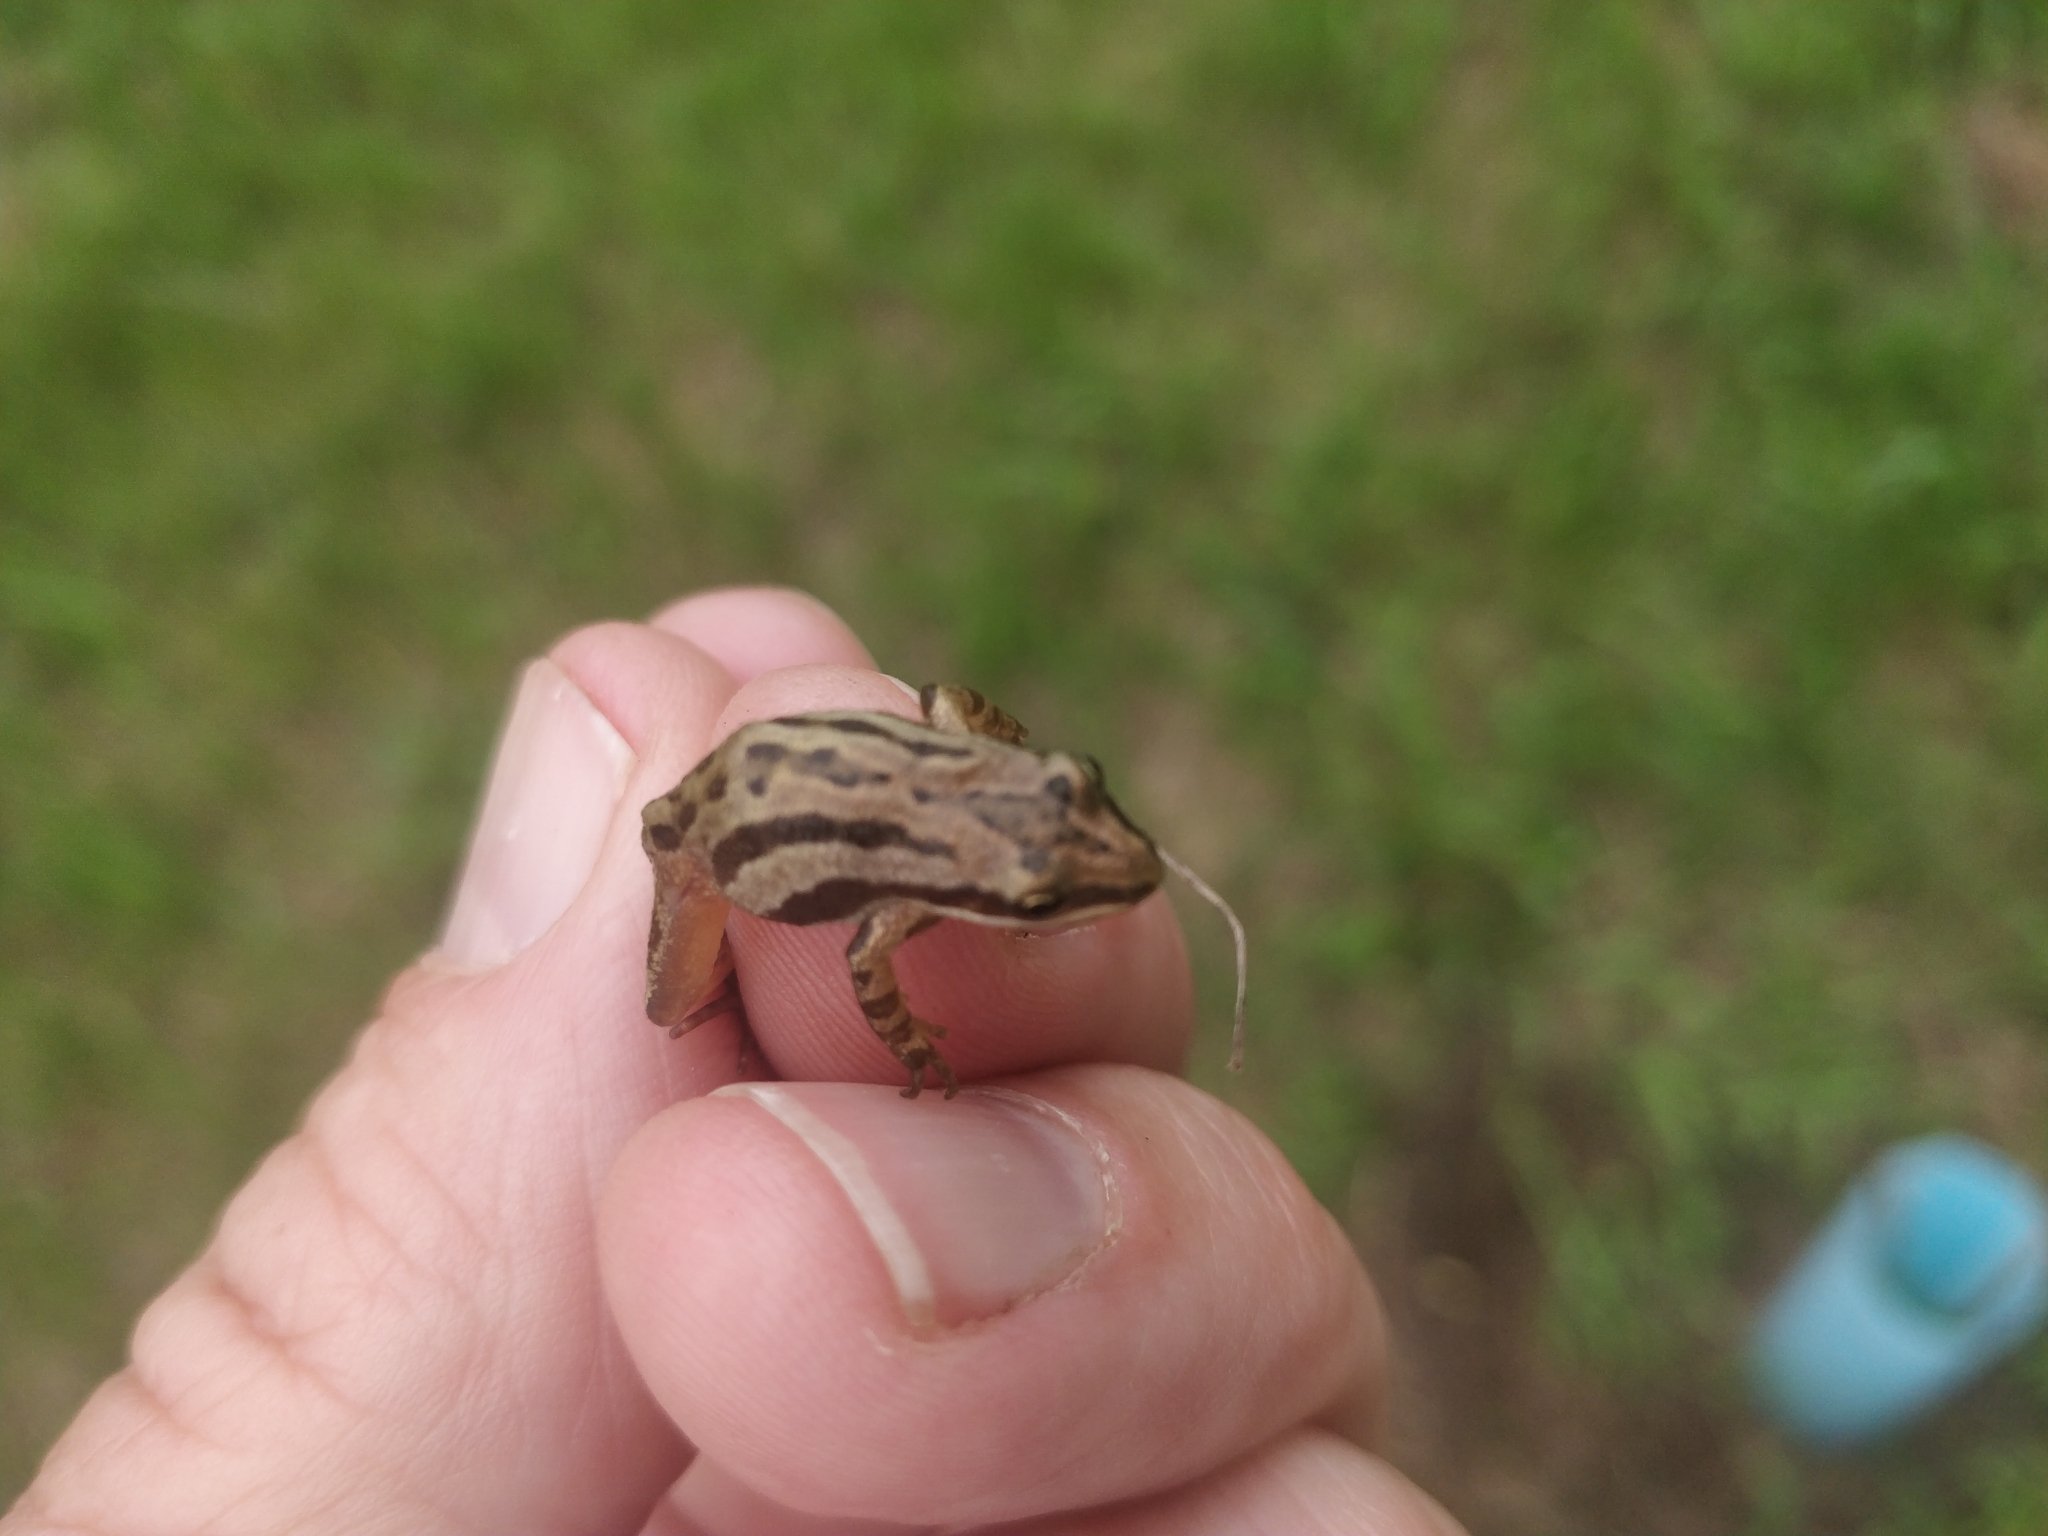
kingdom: Animalia
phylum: Chordata
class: Amphibia
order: Anura
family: Hylidae
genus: Pseudacris
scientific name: Pseudacris maculata
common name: Boreal chorus frog
